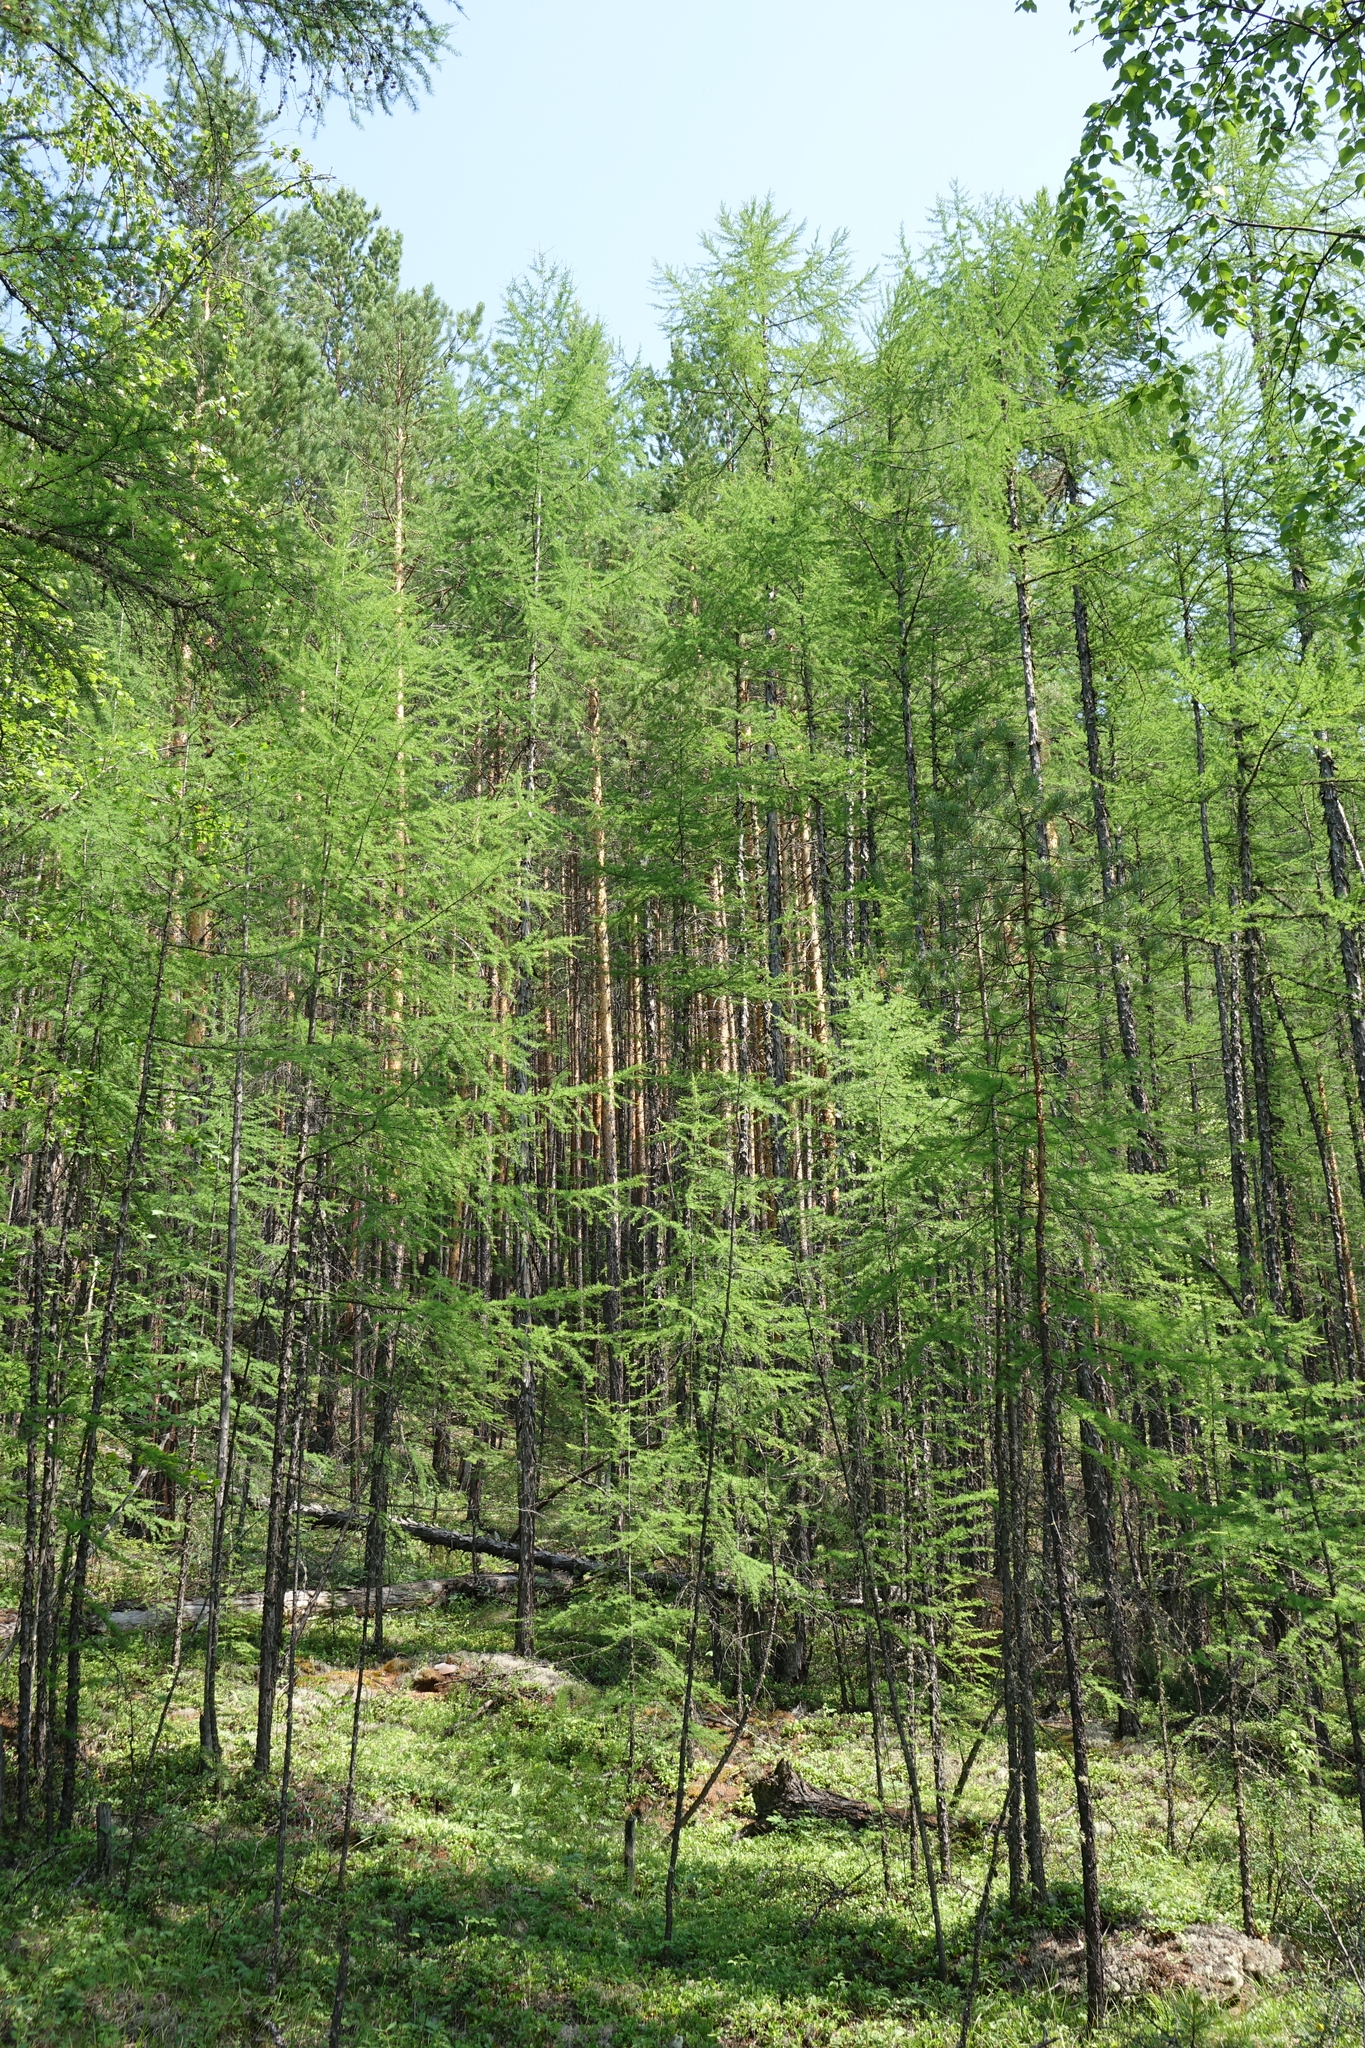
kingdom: Plantae
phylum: Tracheophyta
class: Pinopsida
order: Pinales
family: Pinaceae
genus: Larix
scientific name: Larix gmelinii
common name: Dahurian larch
